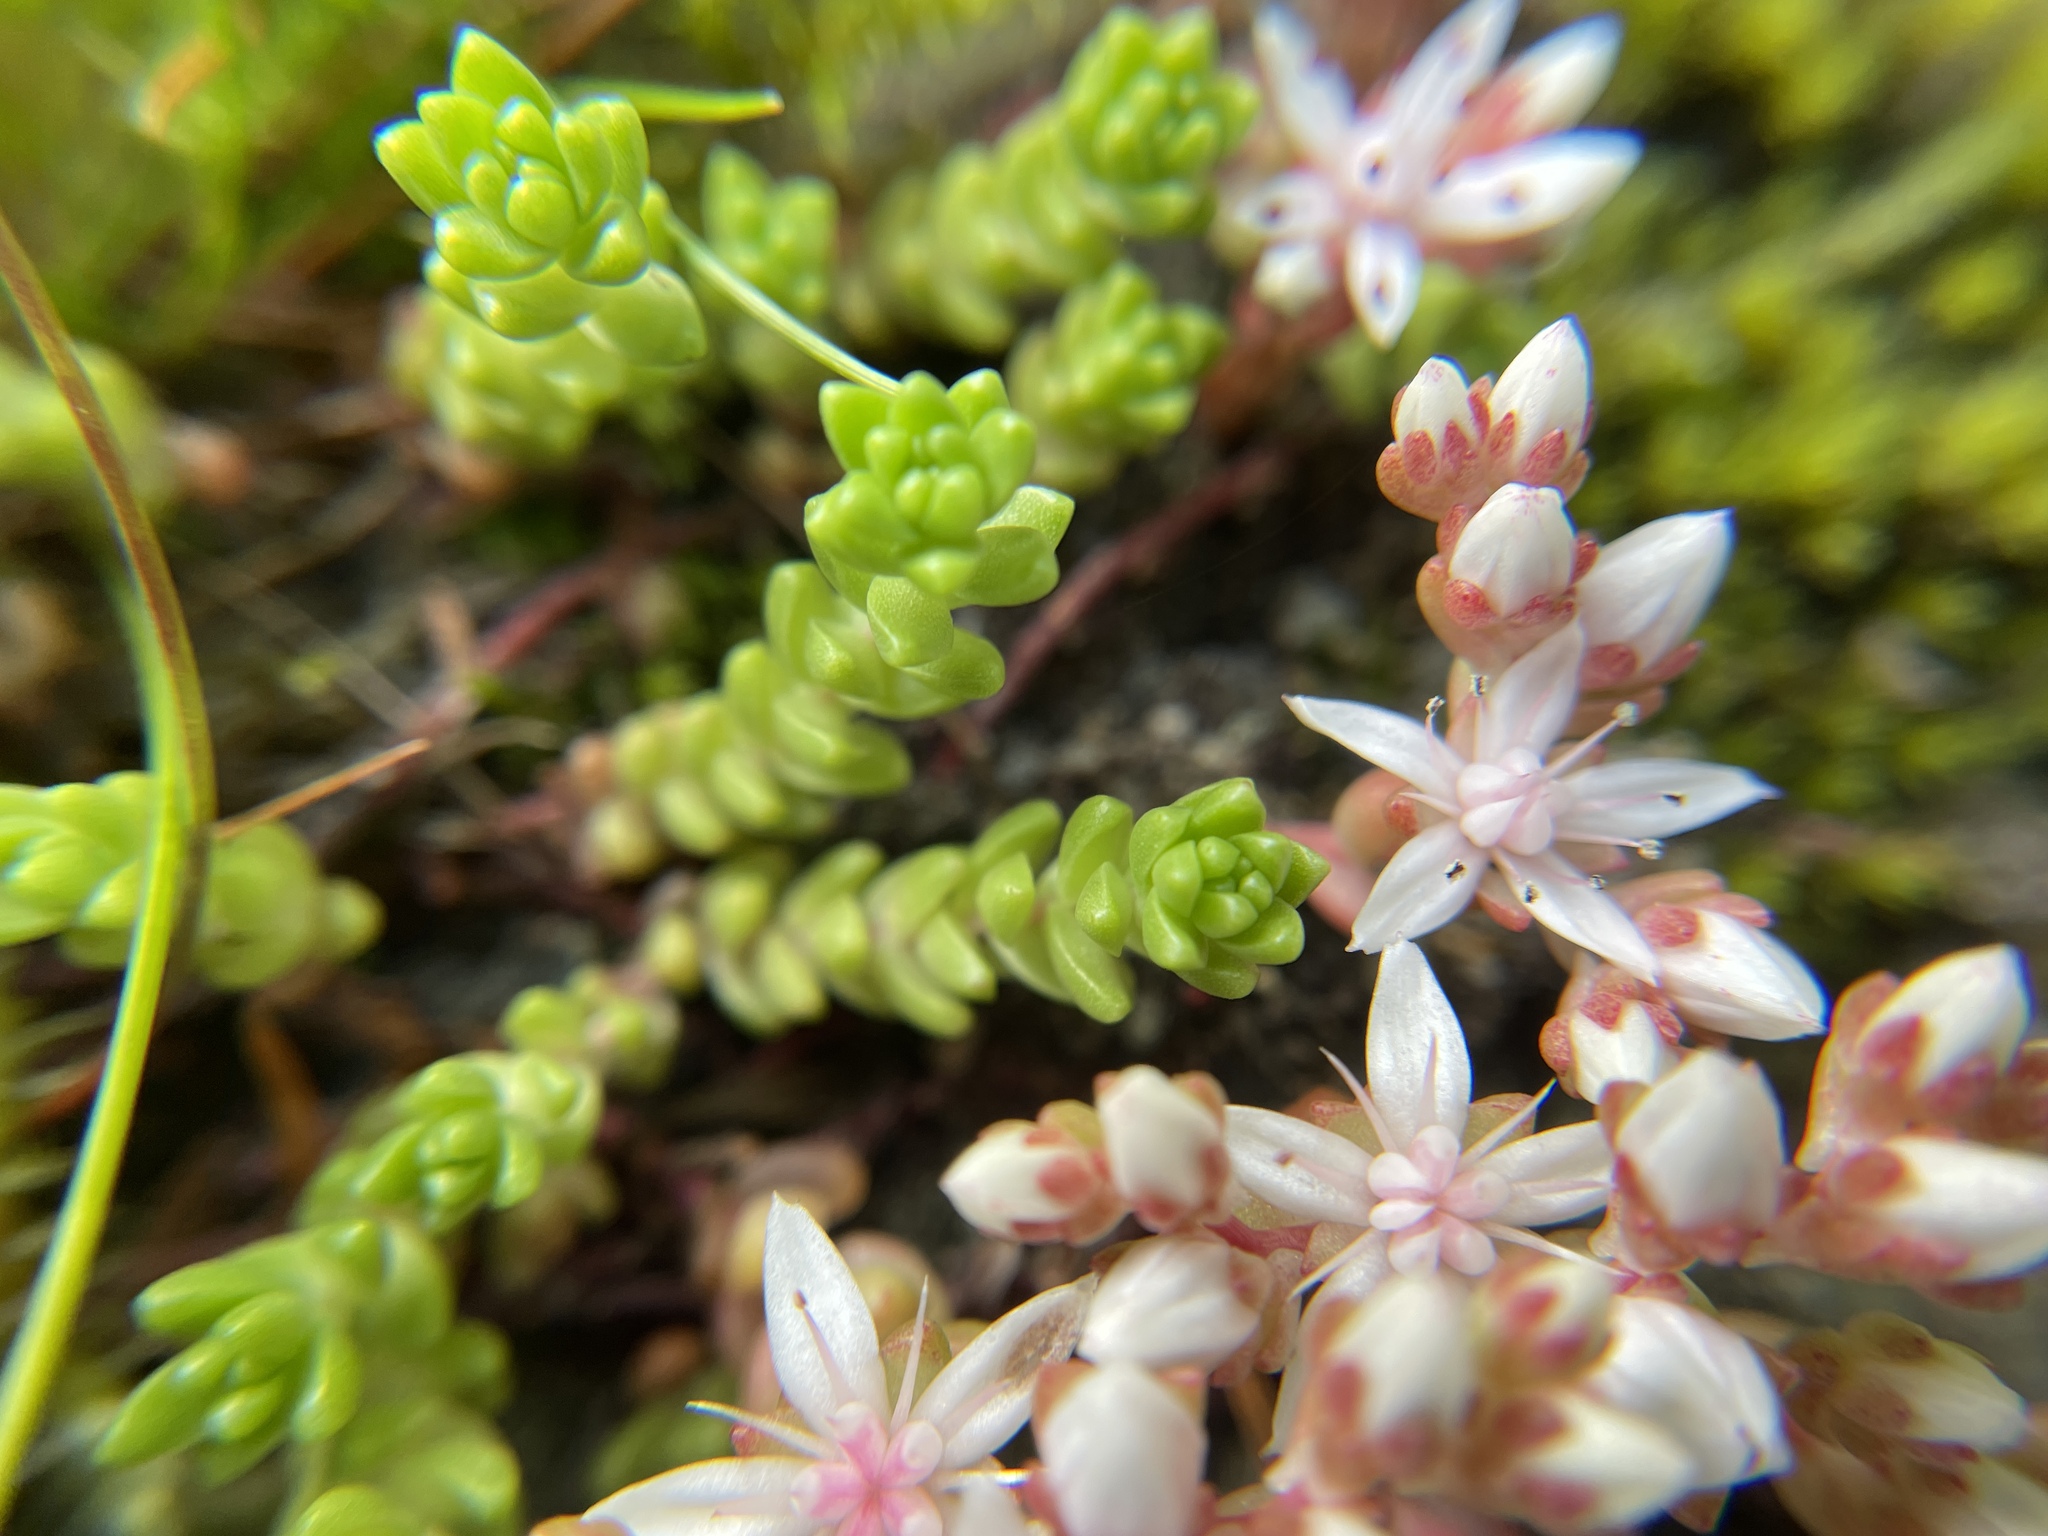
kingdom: Plantae
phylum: Tracheophyta
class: Magnoliopsida
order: Saxifragales
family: Crassulaceae
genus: Sedum
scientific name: Sedum anglicum
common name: English stonecrop
